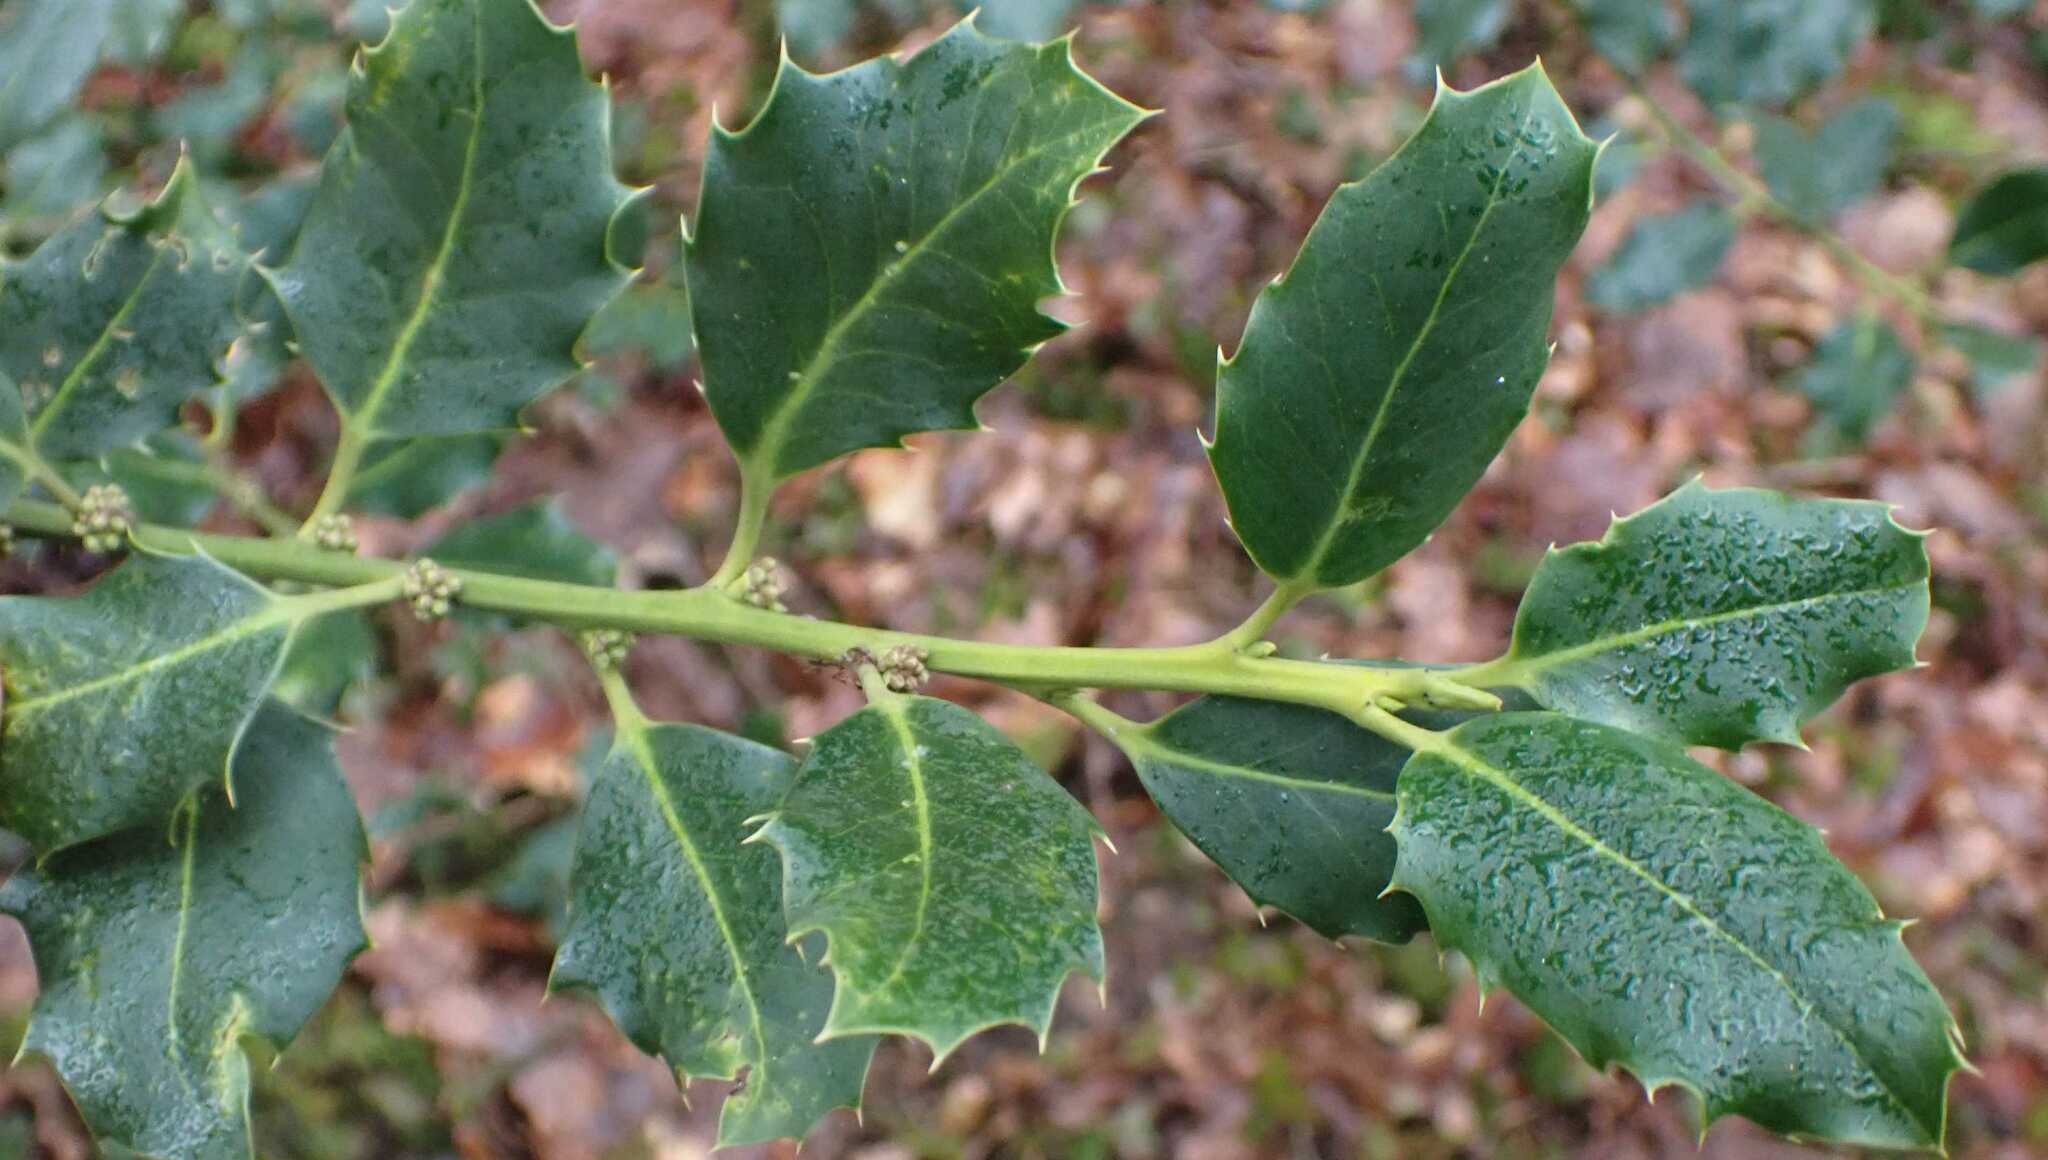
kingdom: Plantae
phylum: Tracheophyta
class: Magnoliopsida
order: Aquifoliales
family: Aquifoliaceae
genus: Ilex
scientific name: Ilex aquifolium
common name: English holly
